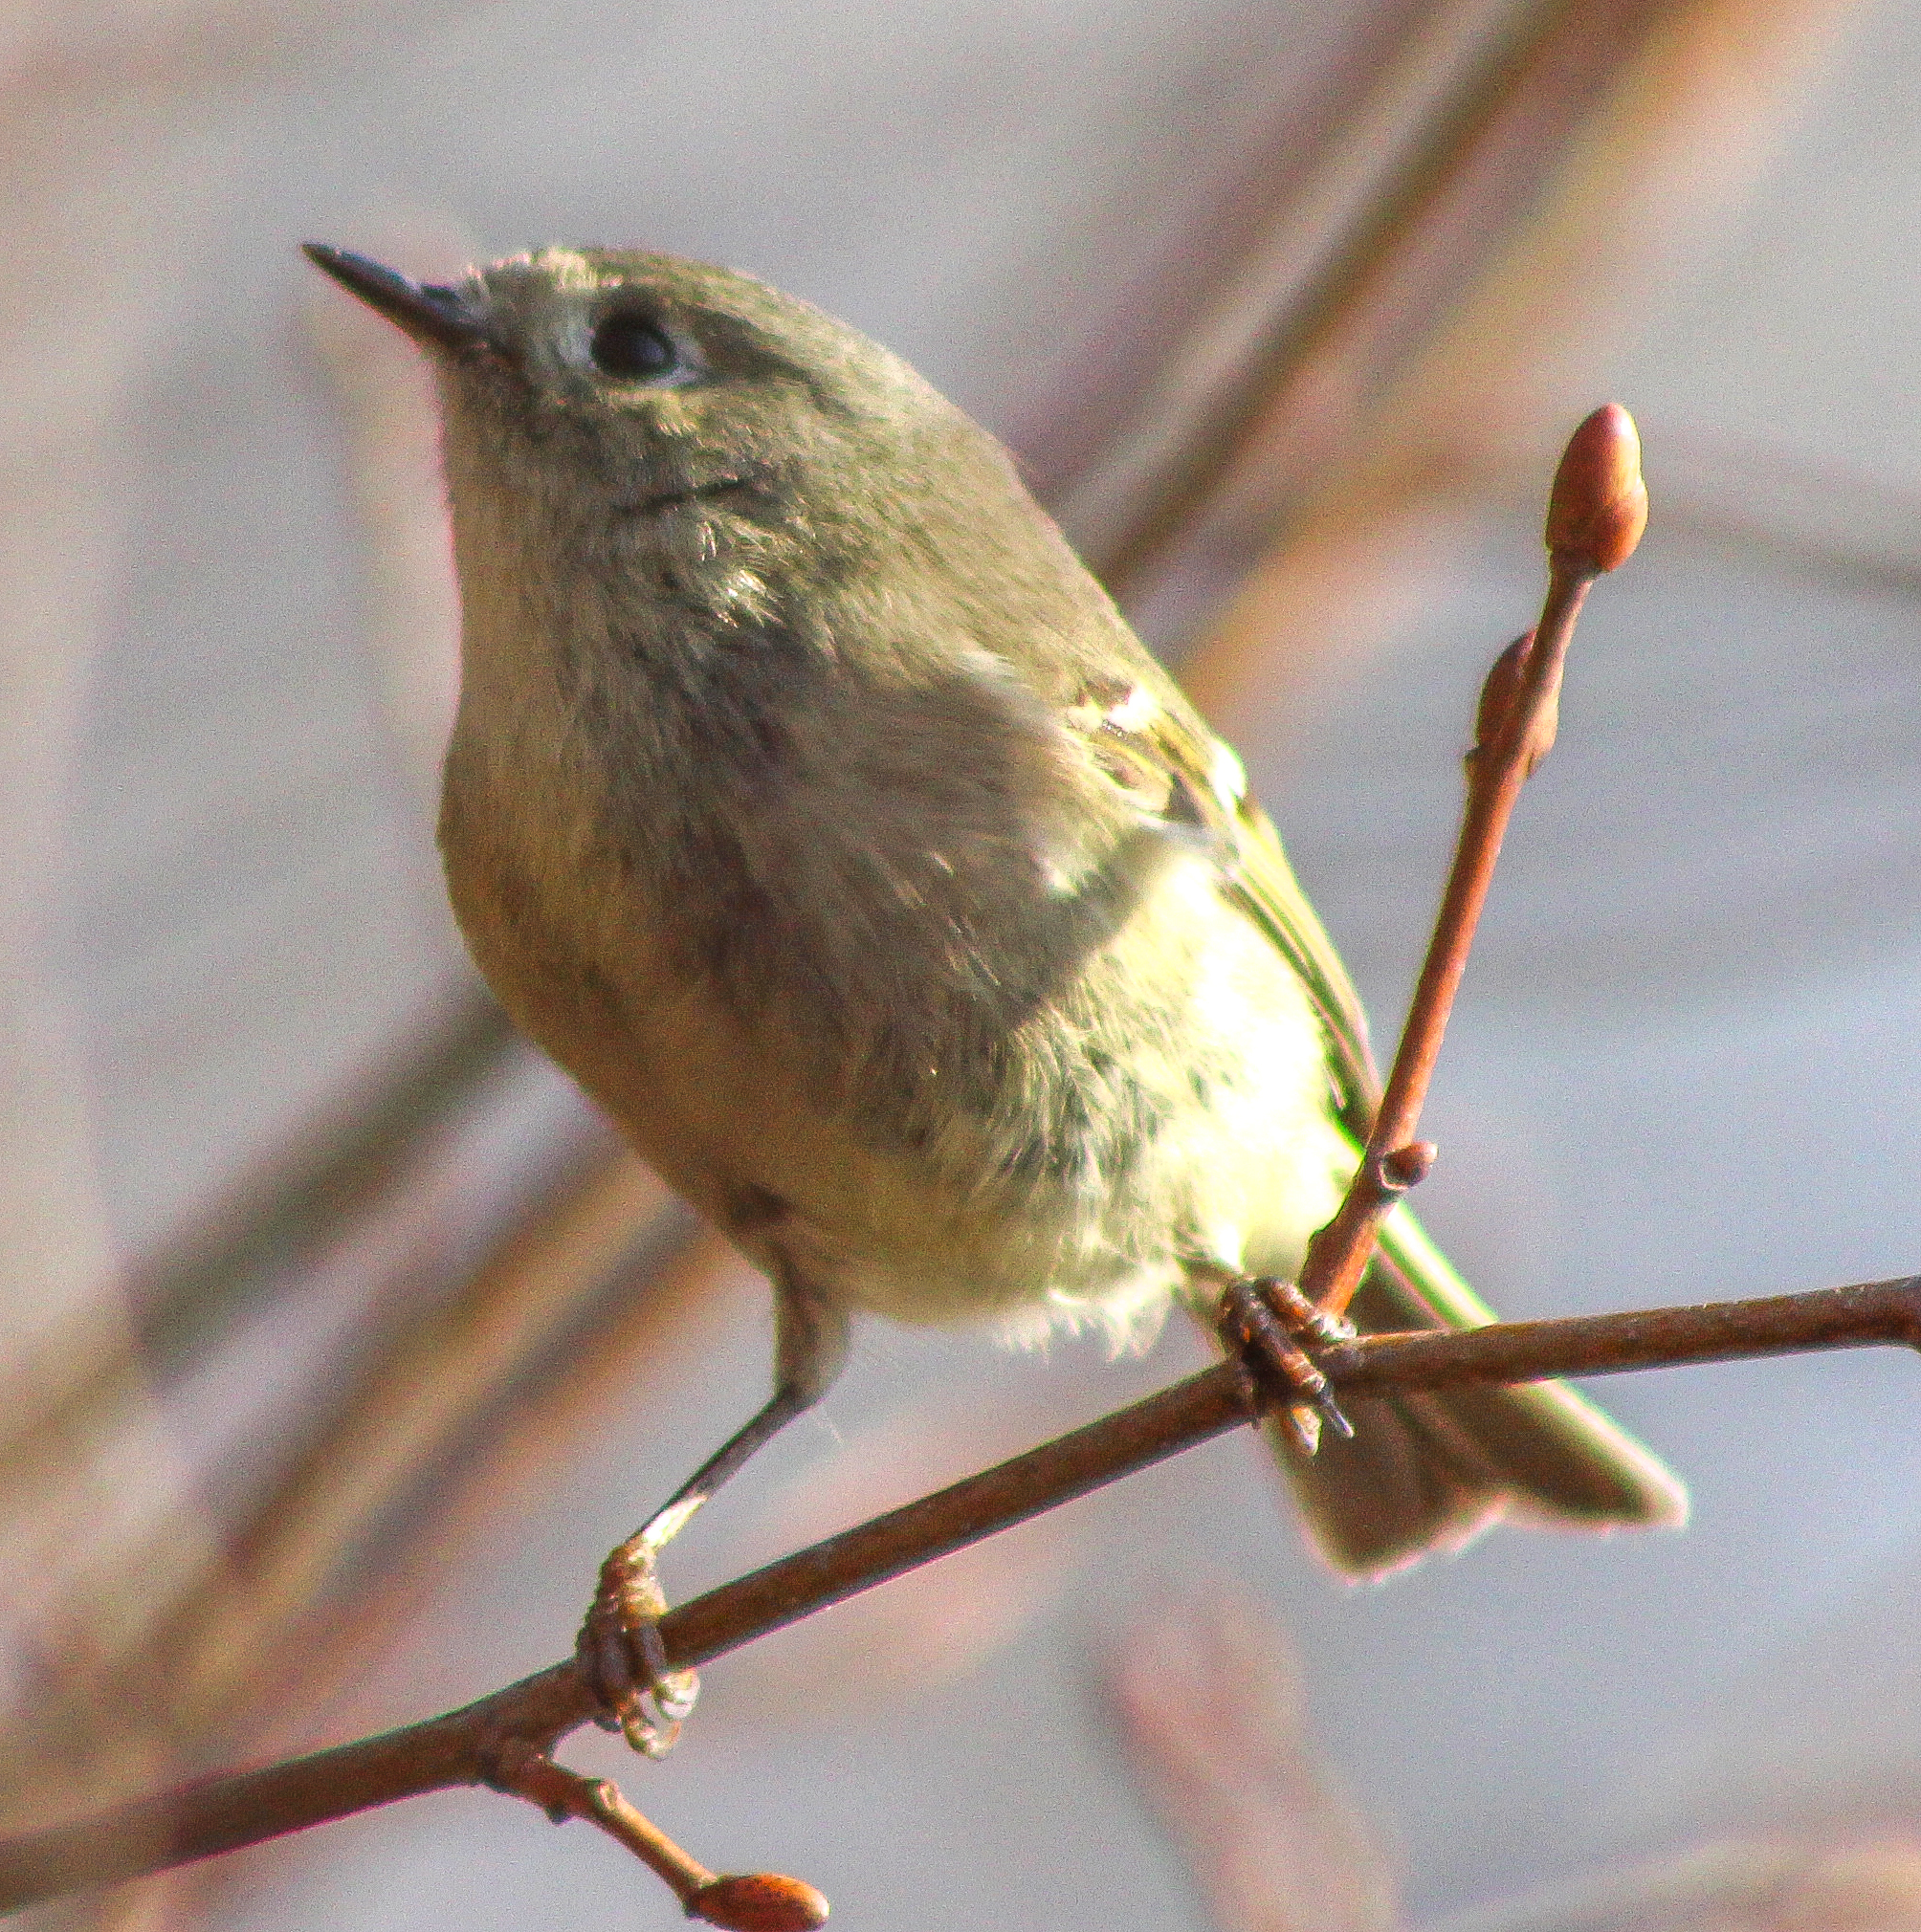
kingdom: Animalia
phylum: Chordata
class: Aves
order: Passeriformes
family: Regulidae
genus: Regulus
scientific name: Regulus calendula
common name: Ruby-crowned kinglet
